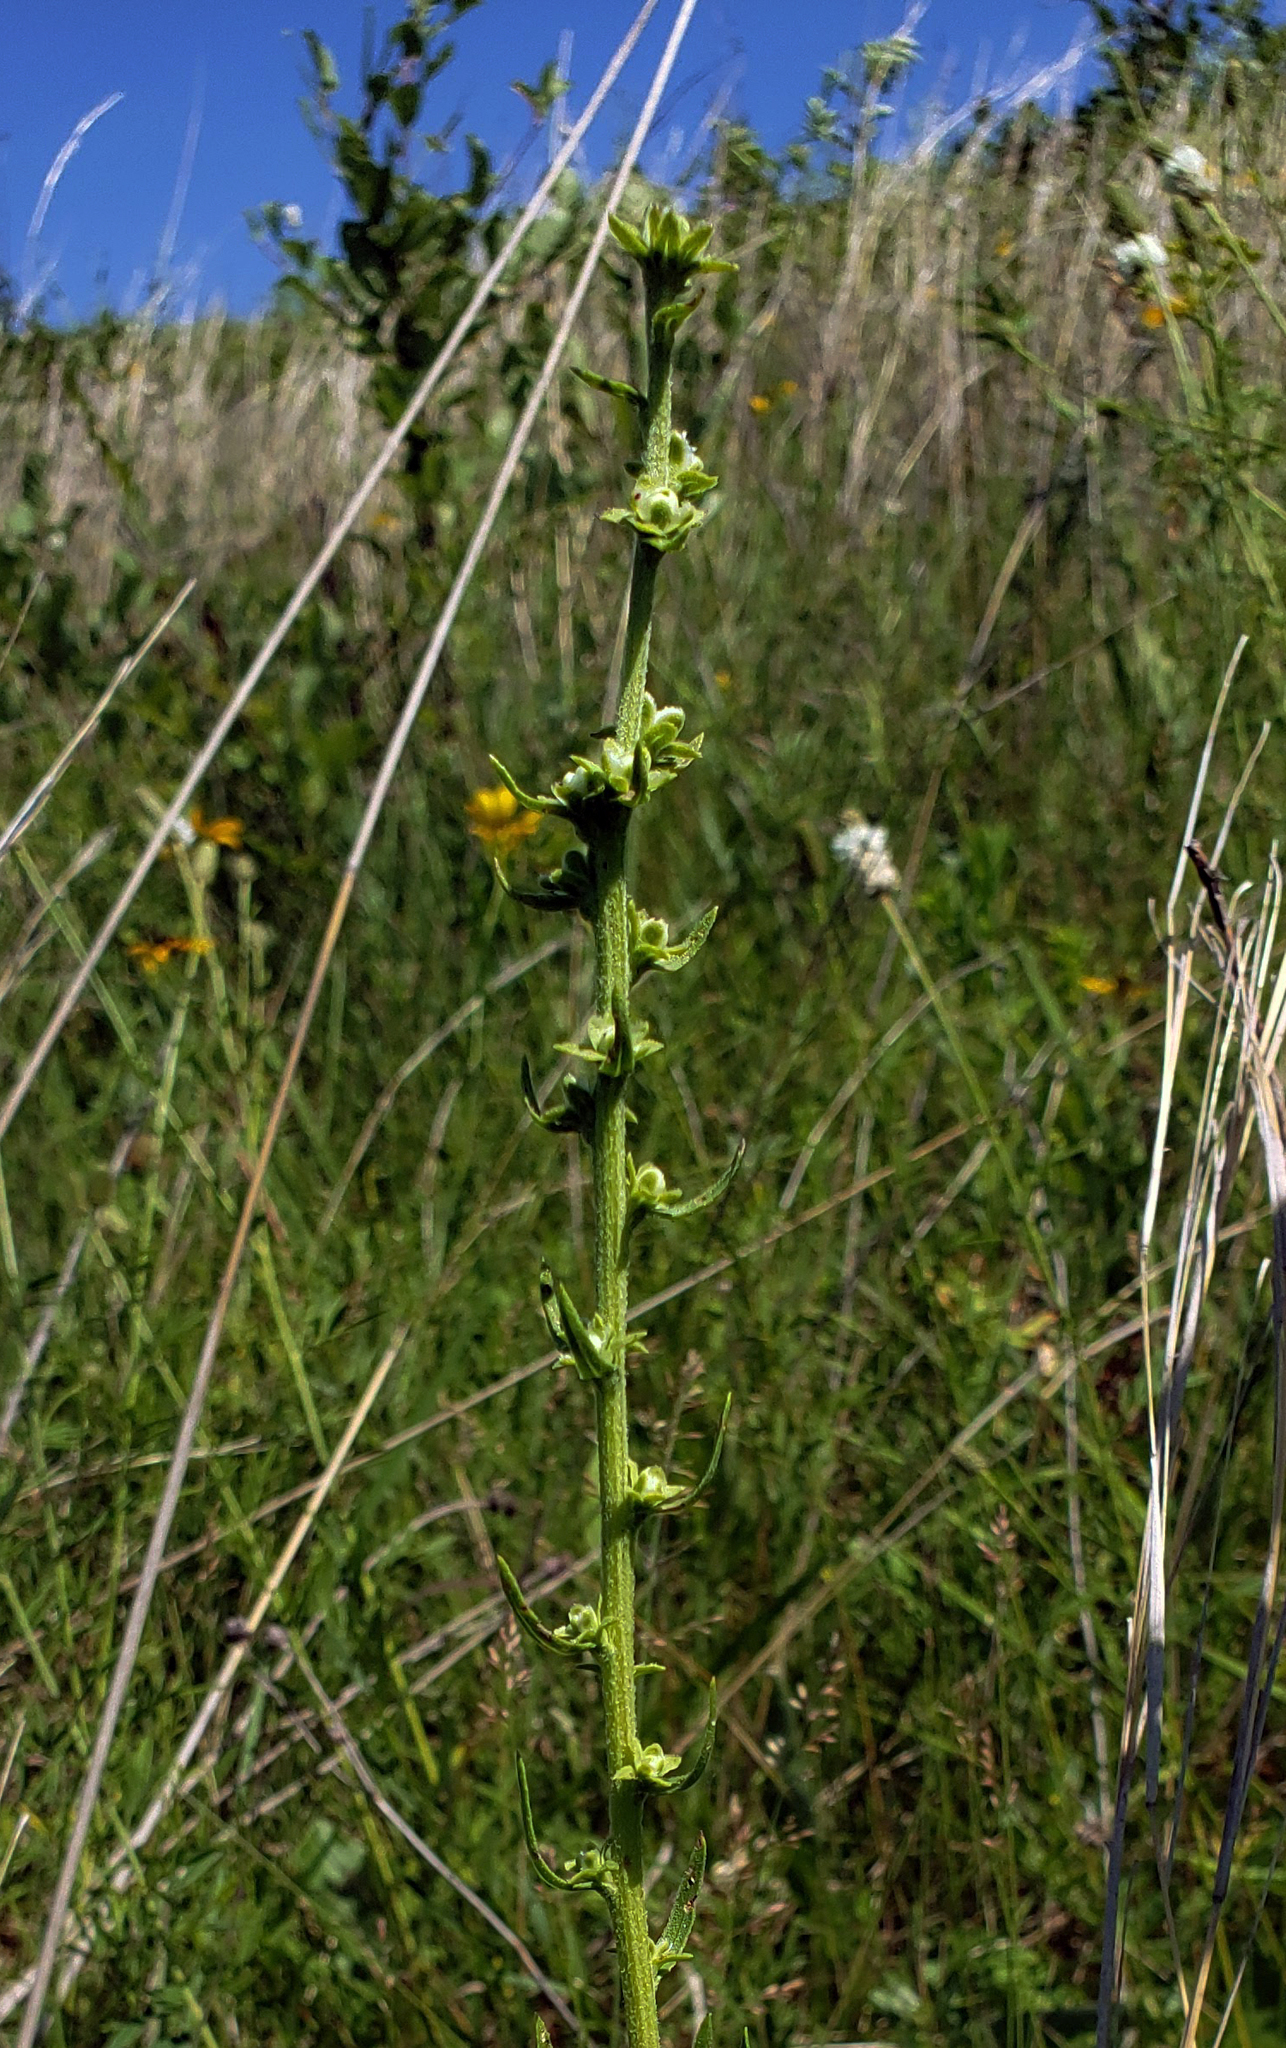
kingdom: Plantae
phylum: Tracheophyta
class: Magnoliopsida
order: Asterales
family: Asteraceae
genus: Liatris
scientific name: Liatris aspera
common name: Lacerate blazing-star
